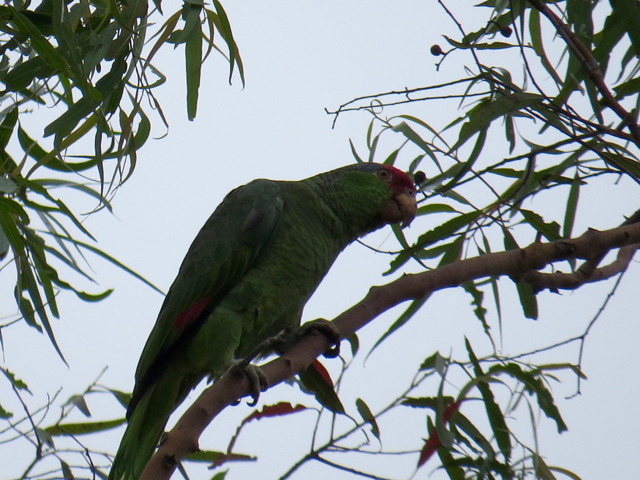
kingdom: Animalia
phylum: Chordata
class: Aves
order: Psittaciformes
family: Psittacidae
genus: Amazona
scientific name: Amazona viridigenalis
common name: Red-crowned amazon
